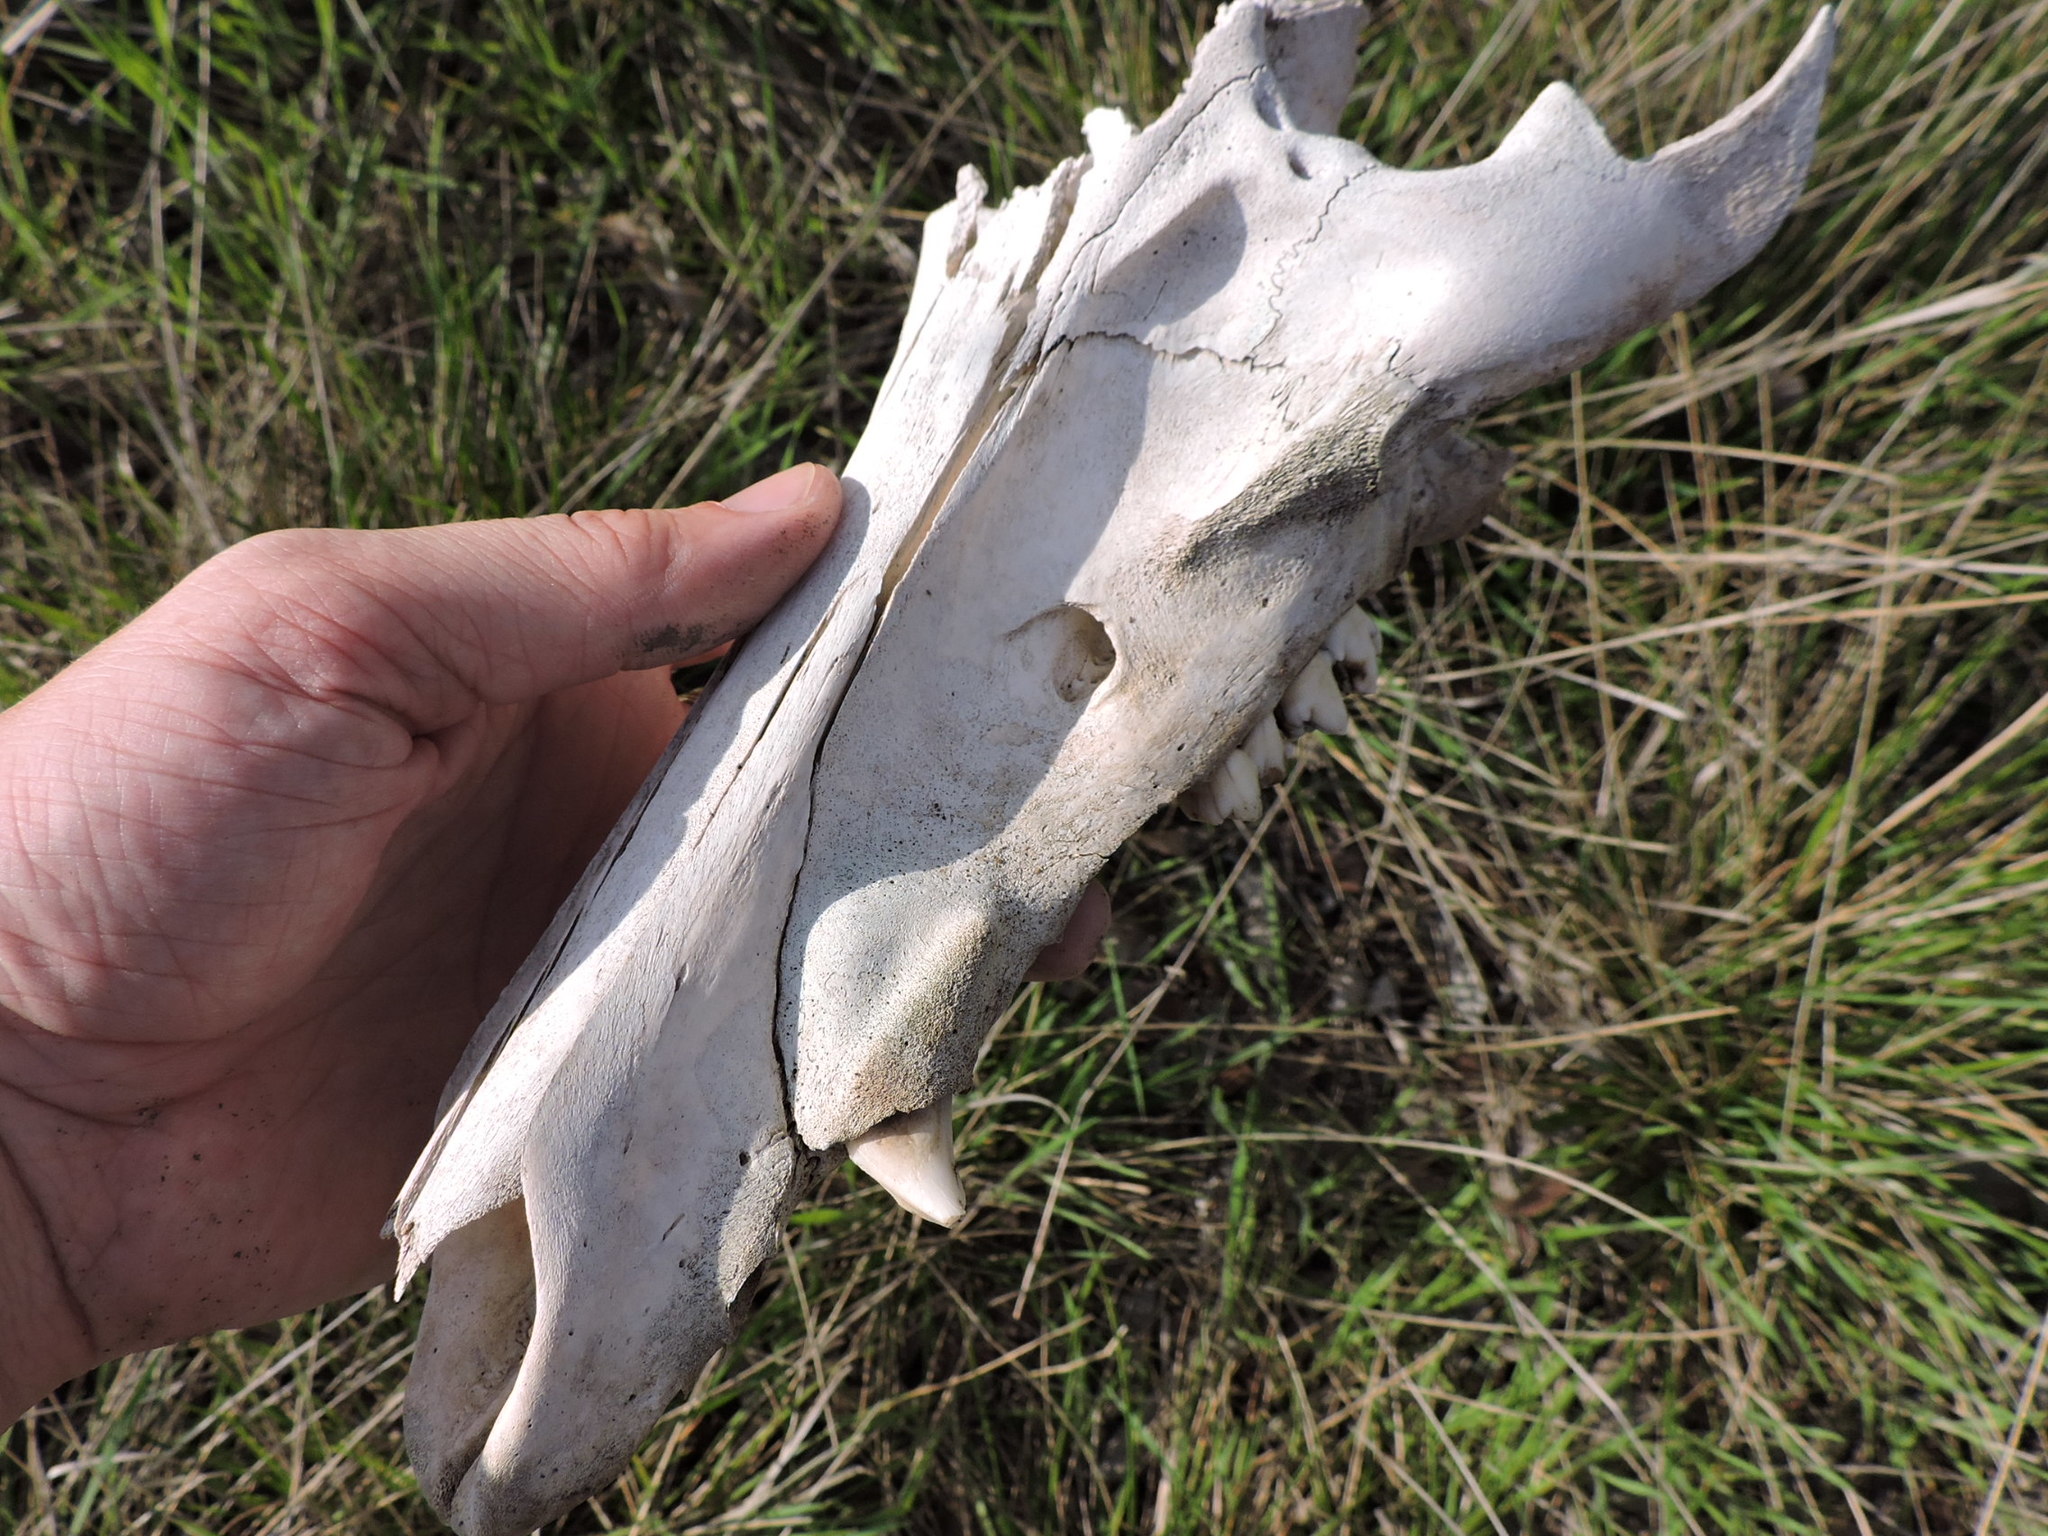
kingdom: Animalia
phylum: Chordata
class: Mammalia
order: Artiodactyla
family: Suidae
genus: Sus
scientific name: Sus scrofa
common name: Wild boar
